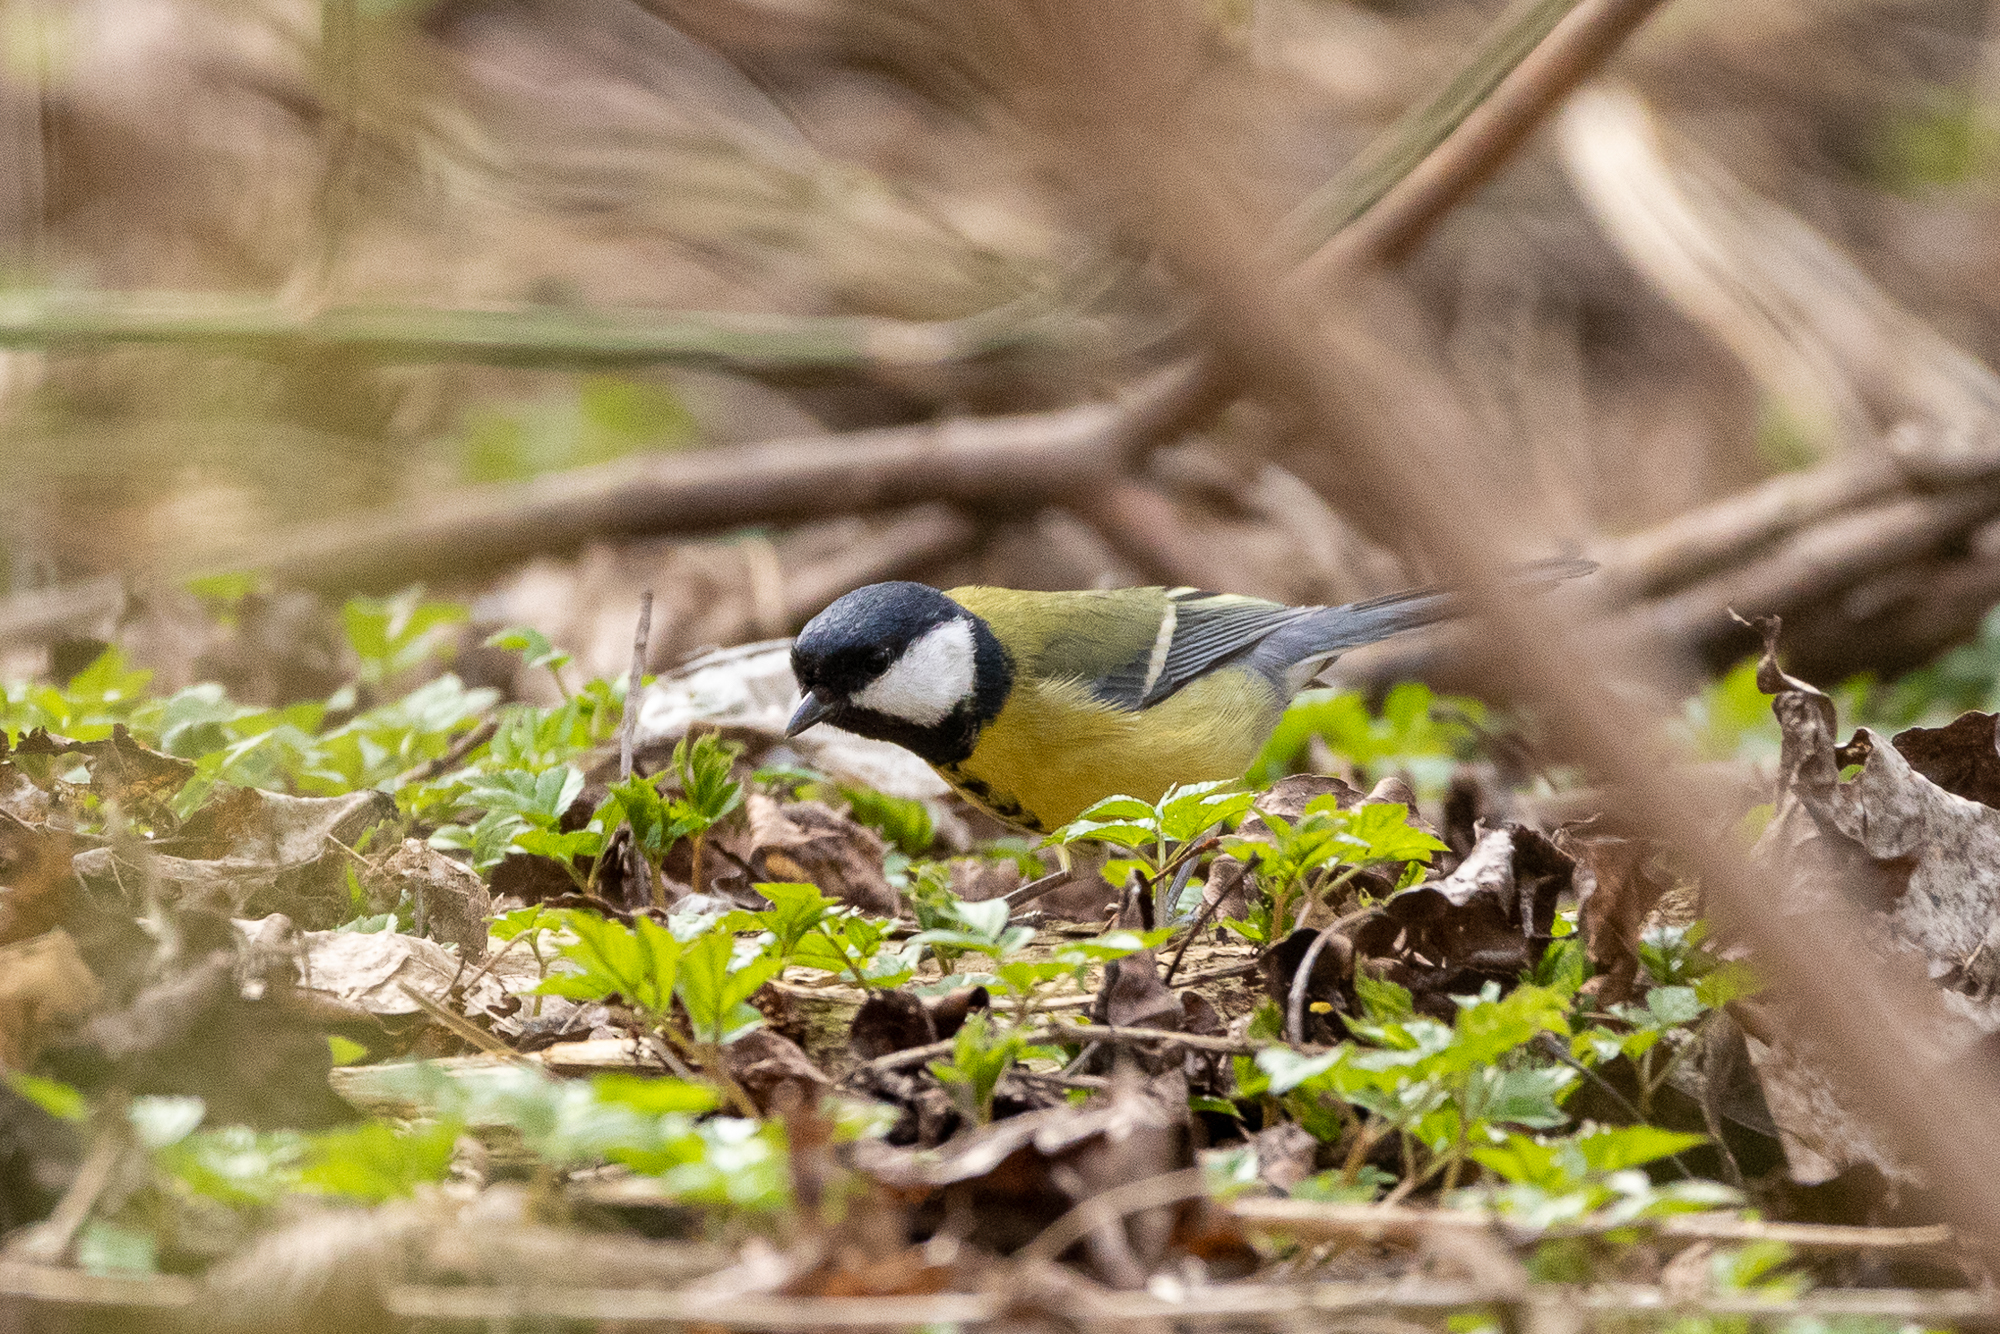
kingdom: Animalia
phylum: Chordata
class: Aves
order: Passeriformes
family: Paridae
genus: Parus
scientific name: Parus major
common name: Great tit
